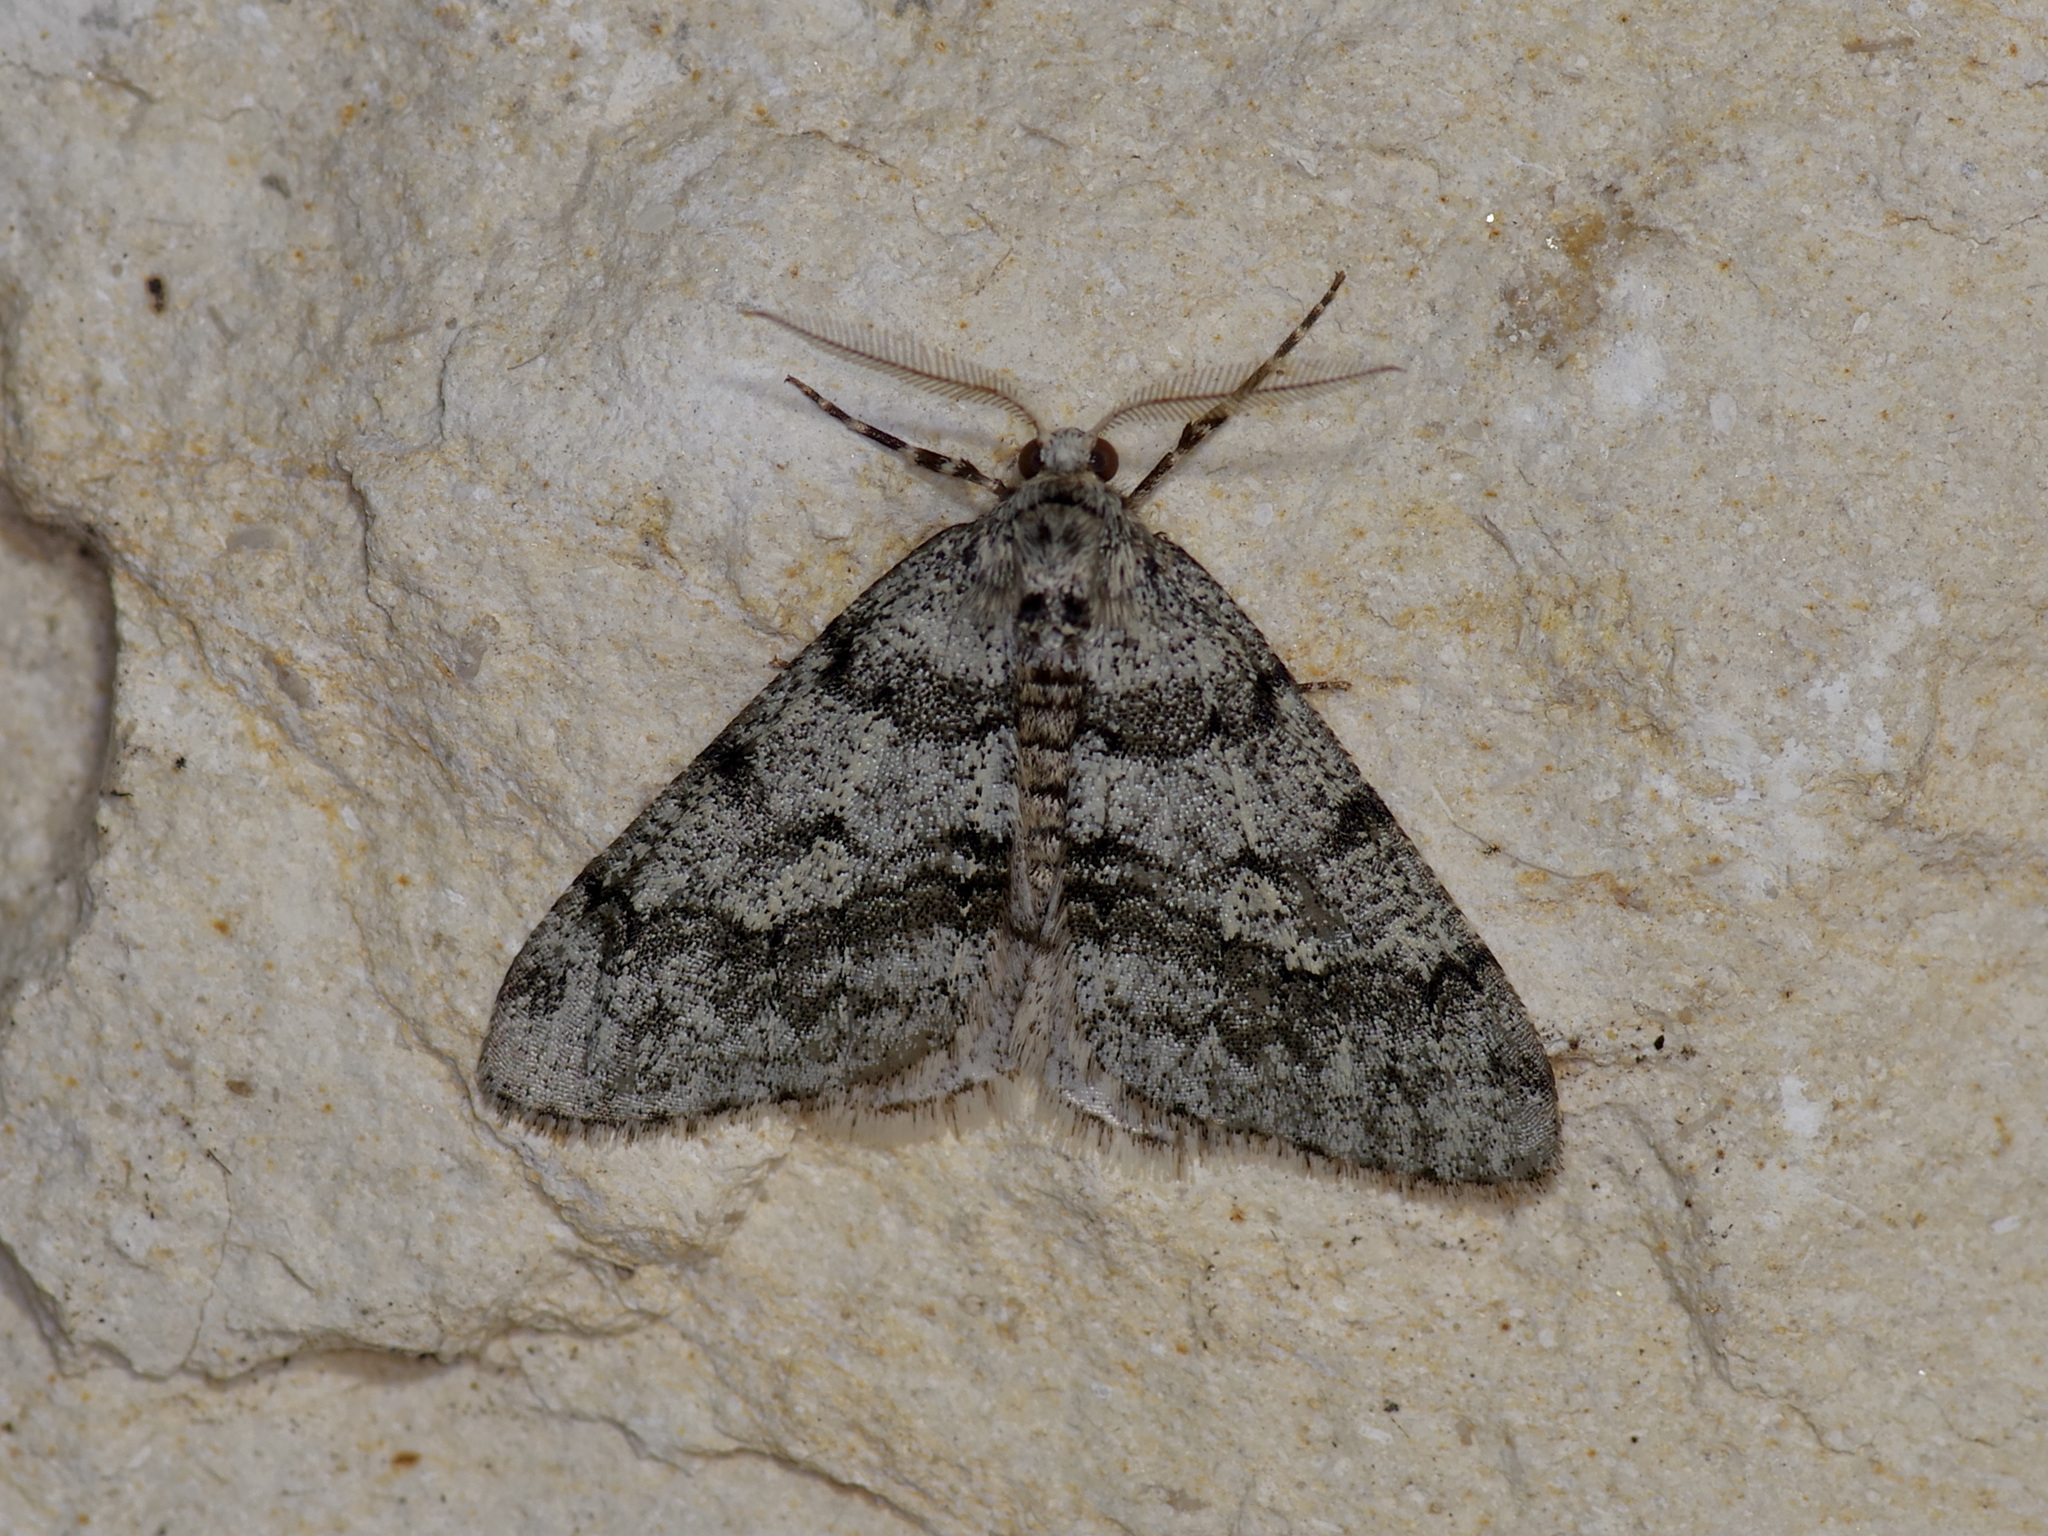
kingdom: Animalia
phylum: Arthropoda
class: Insecta
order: Lepidoptera
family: Geometridae
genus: Phigalia
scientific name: Phigalia strigataria
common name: Small phigalia
